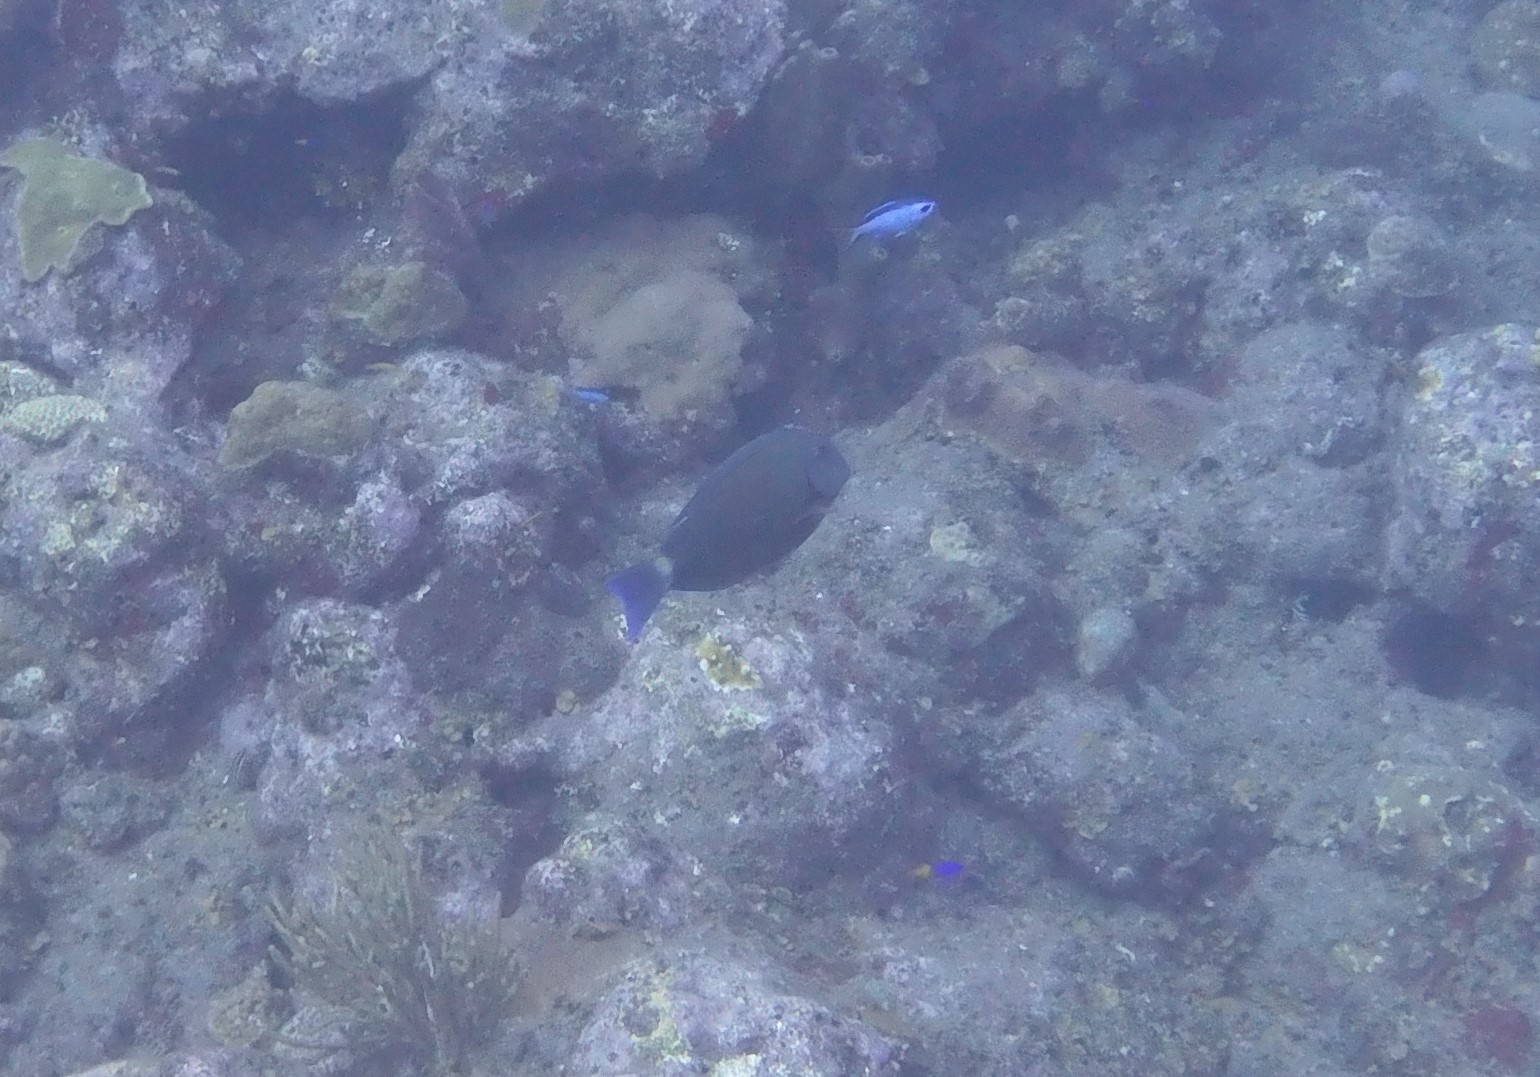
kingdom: Animalia
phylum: Chordata
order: Perciformes
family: Acanthuridae
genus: Acanthurus
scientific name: Acanthurus bahianus
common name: Ocean surgeon
